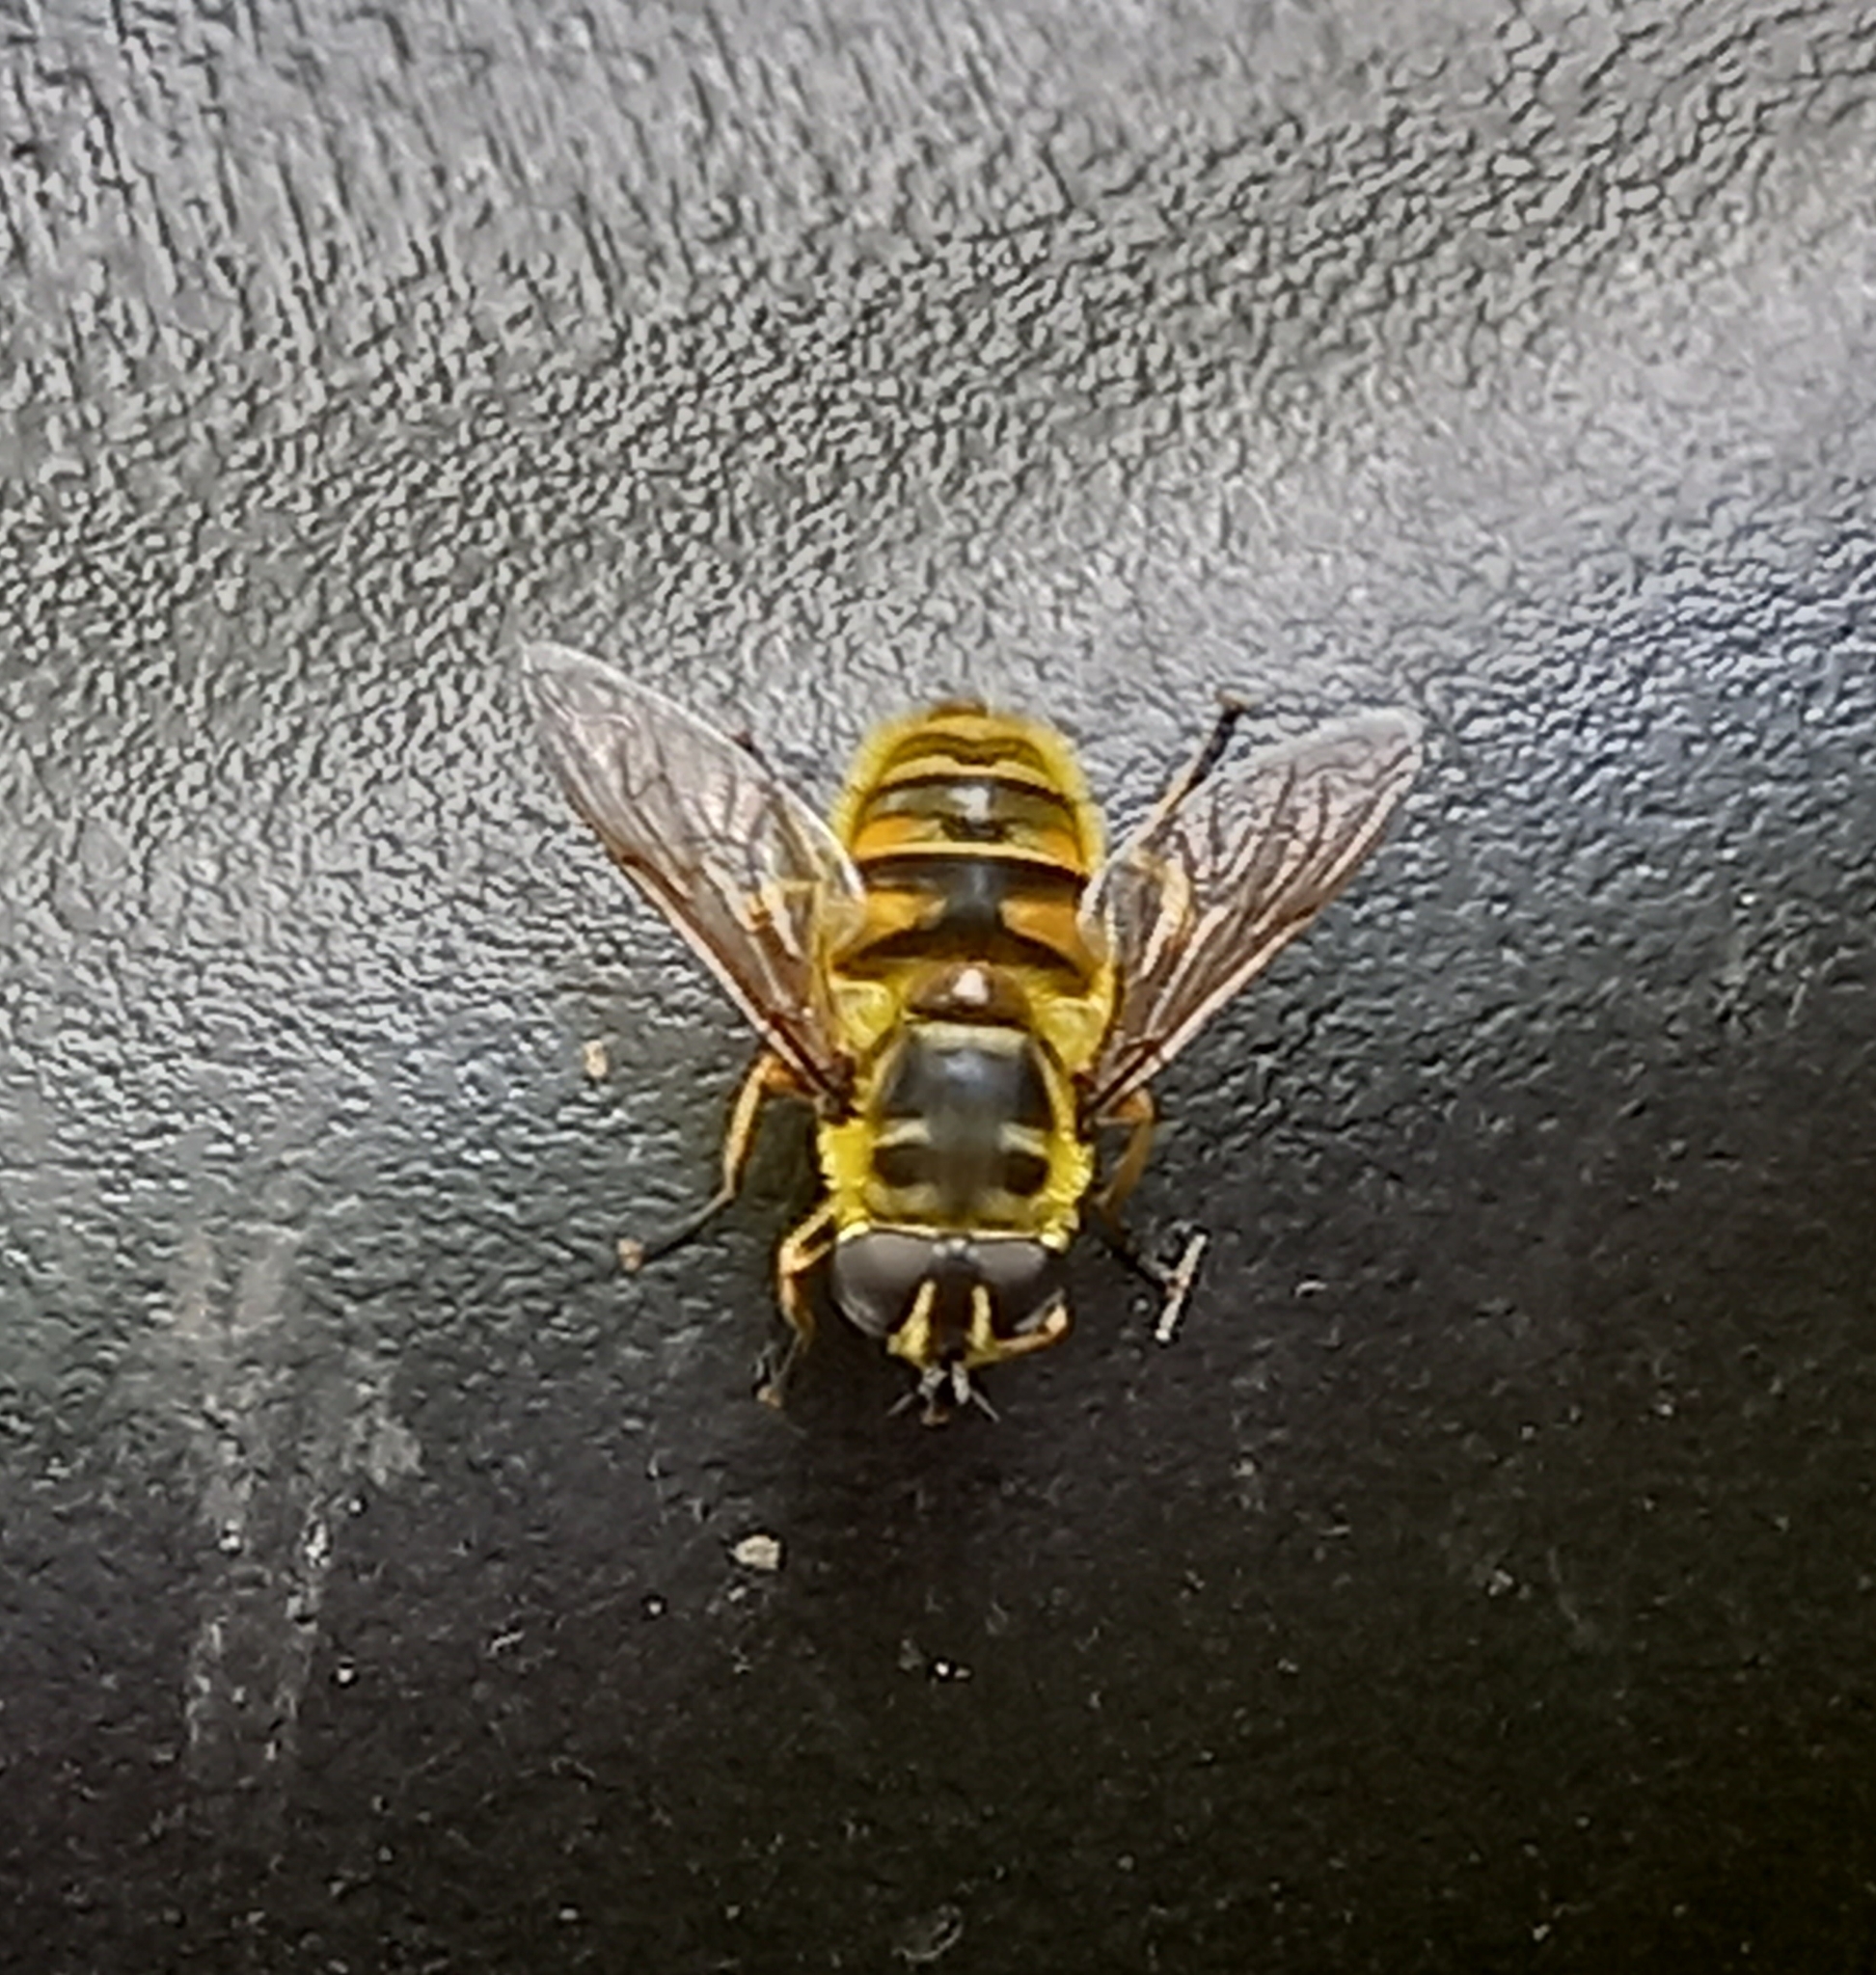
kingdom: Animalia
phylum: Arthropoda
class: Insecta
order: Diptera
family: Syrphidae
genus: Myathropa
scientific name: Myathropa florea
